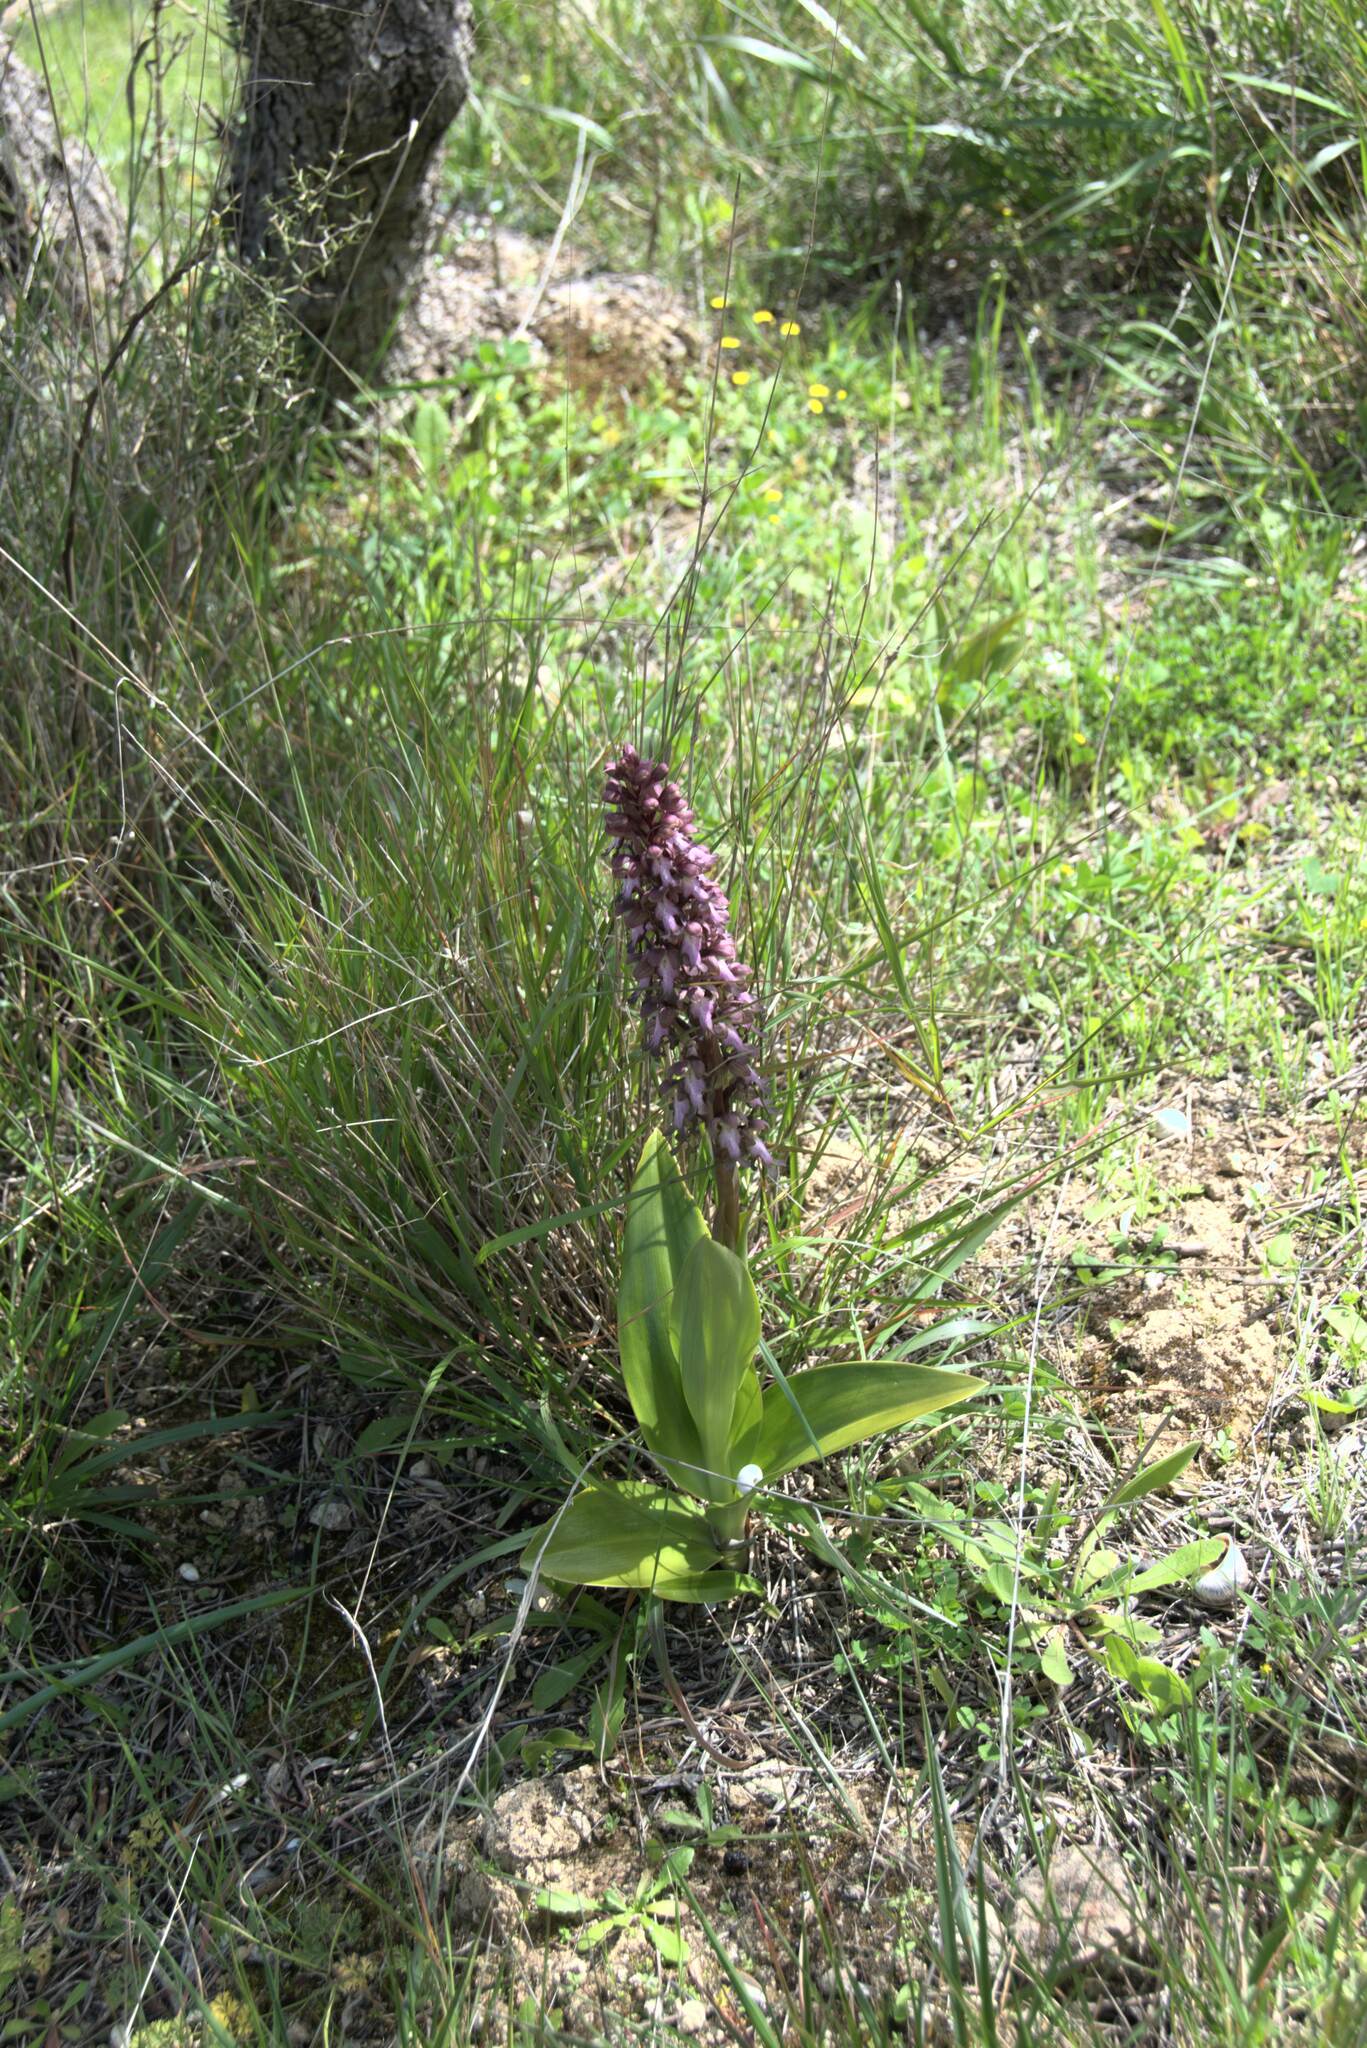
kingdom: Plantae
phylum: Tracheophyta
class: Liliopsida
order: Asparagales
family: Orchidaceae
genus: Himantoglossum
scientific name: Himantoglossum robertianum
